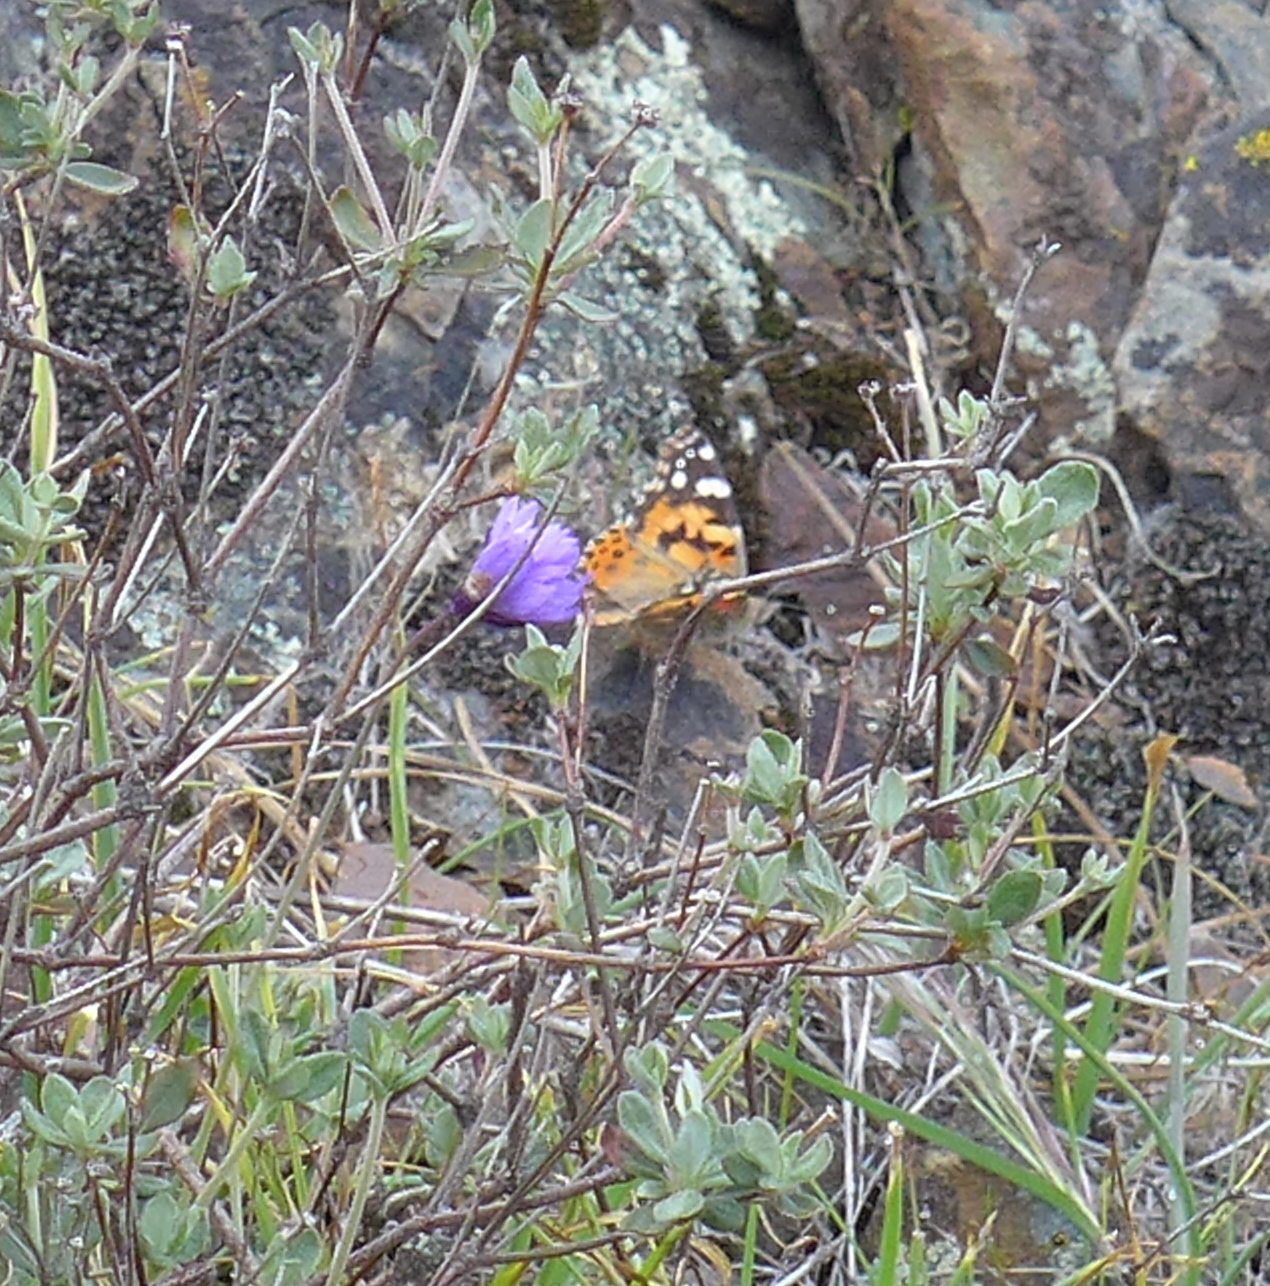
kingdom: Animalia
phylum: Arthropoda
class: Insecta
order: Lepidoptera
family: Nymphalidae
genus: Vanessa
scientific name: Vanessa cardui
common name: Painted lady
